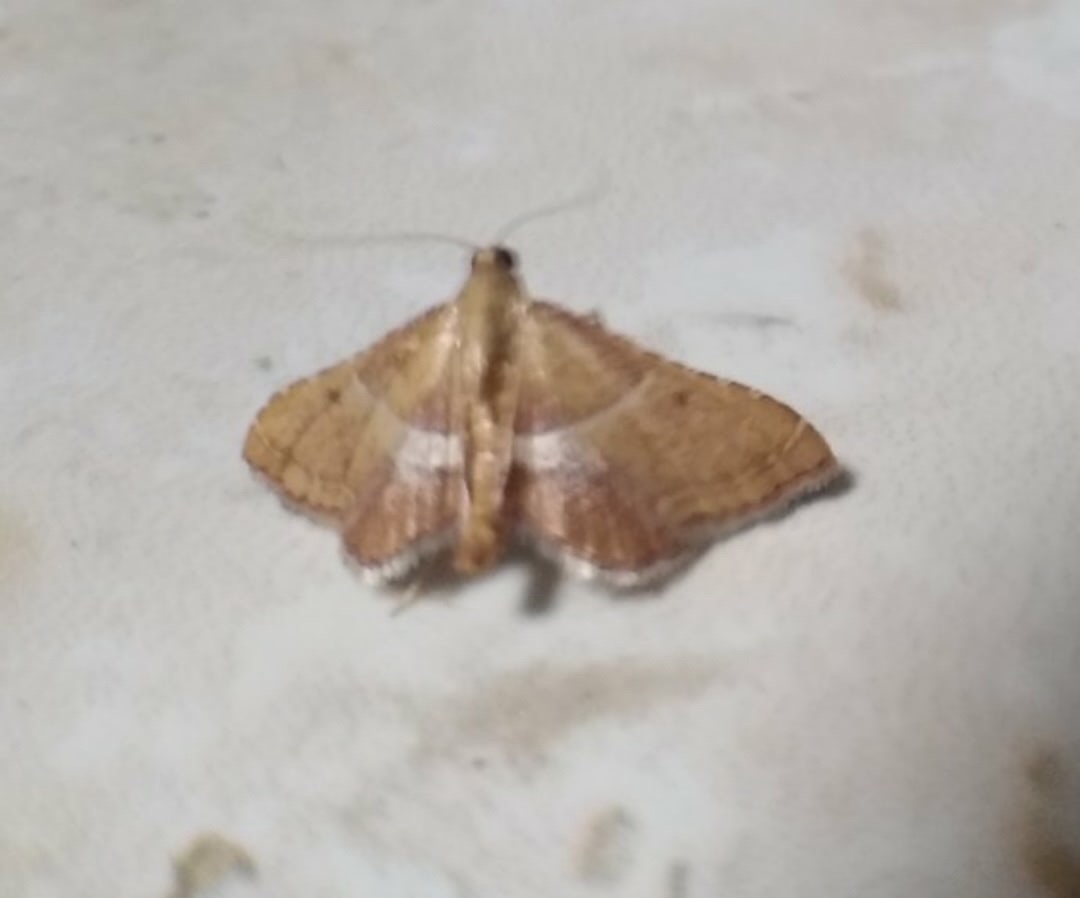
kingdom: Animalia
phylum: Arthropoda
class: Insecta
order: Lepidoptera
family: Pyralidae
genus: Endotricha
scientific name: Endotricha flammealis
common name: Rosy tabby
